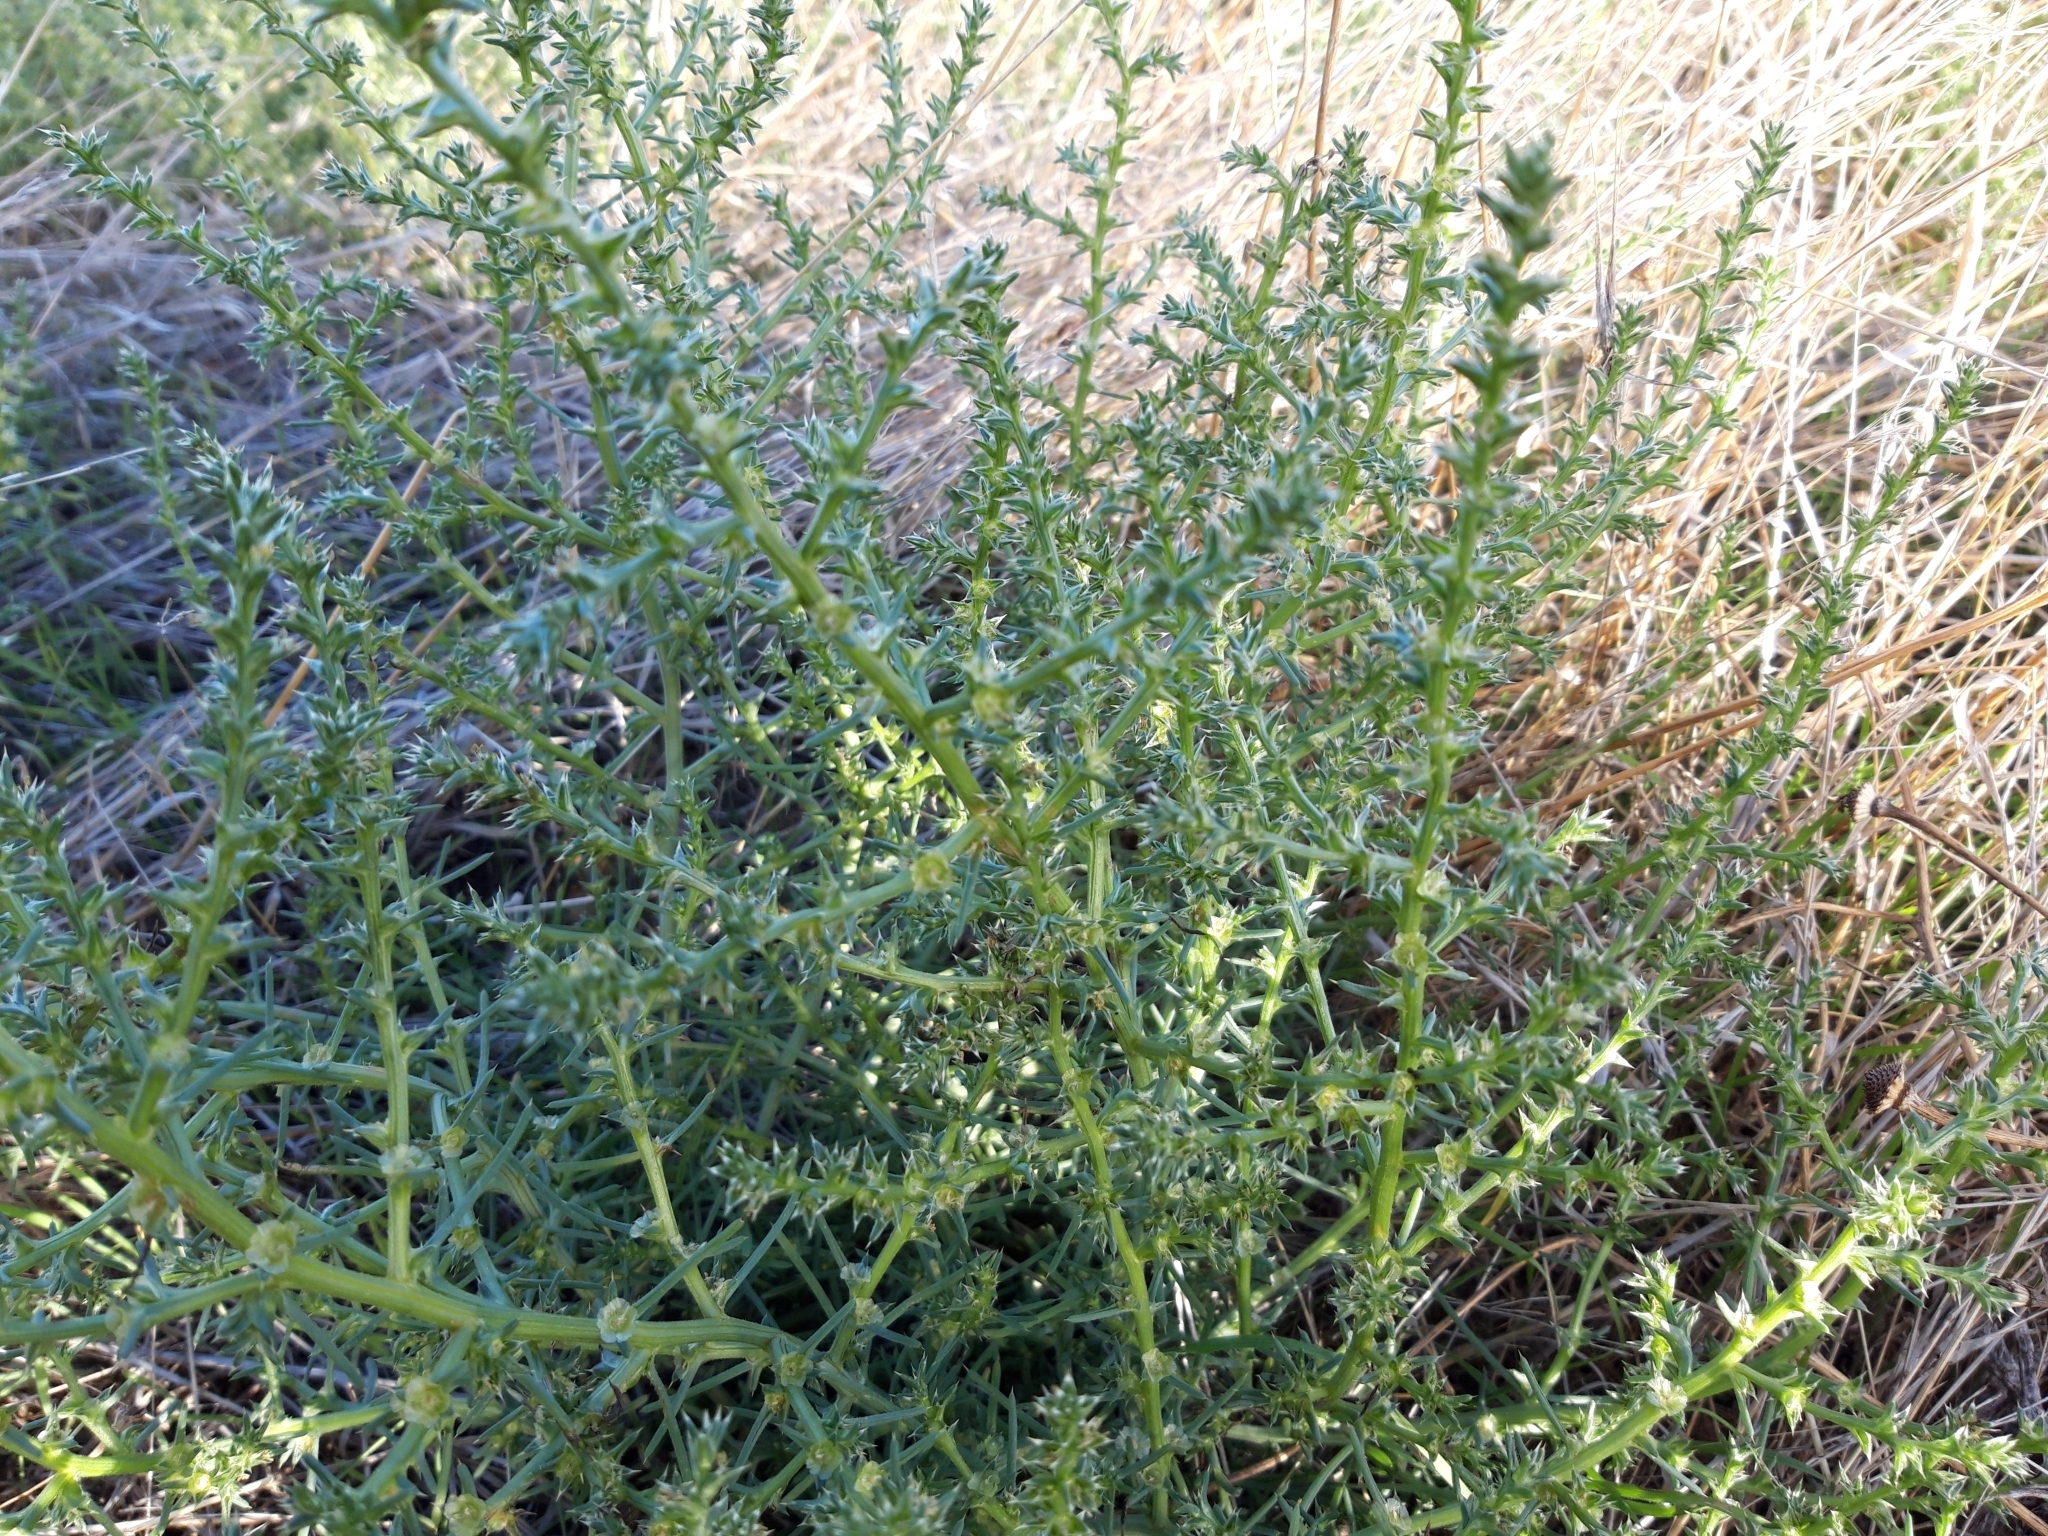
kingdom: Plantae
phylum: Tracheophyta
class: Magnoliopsida
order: Caryophyllales
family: Amaranthaceae
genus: Salsola
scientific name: Salsola kali
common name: Saltwort
